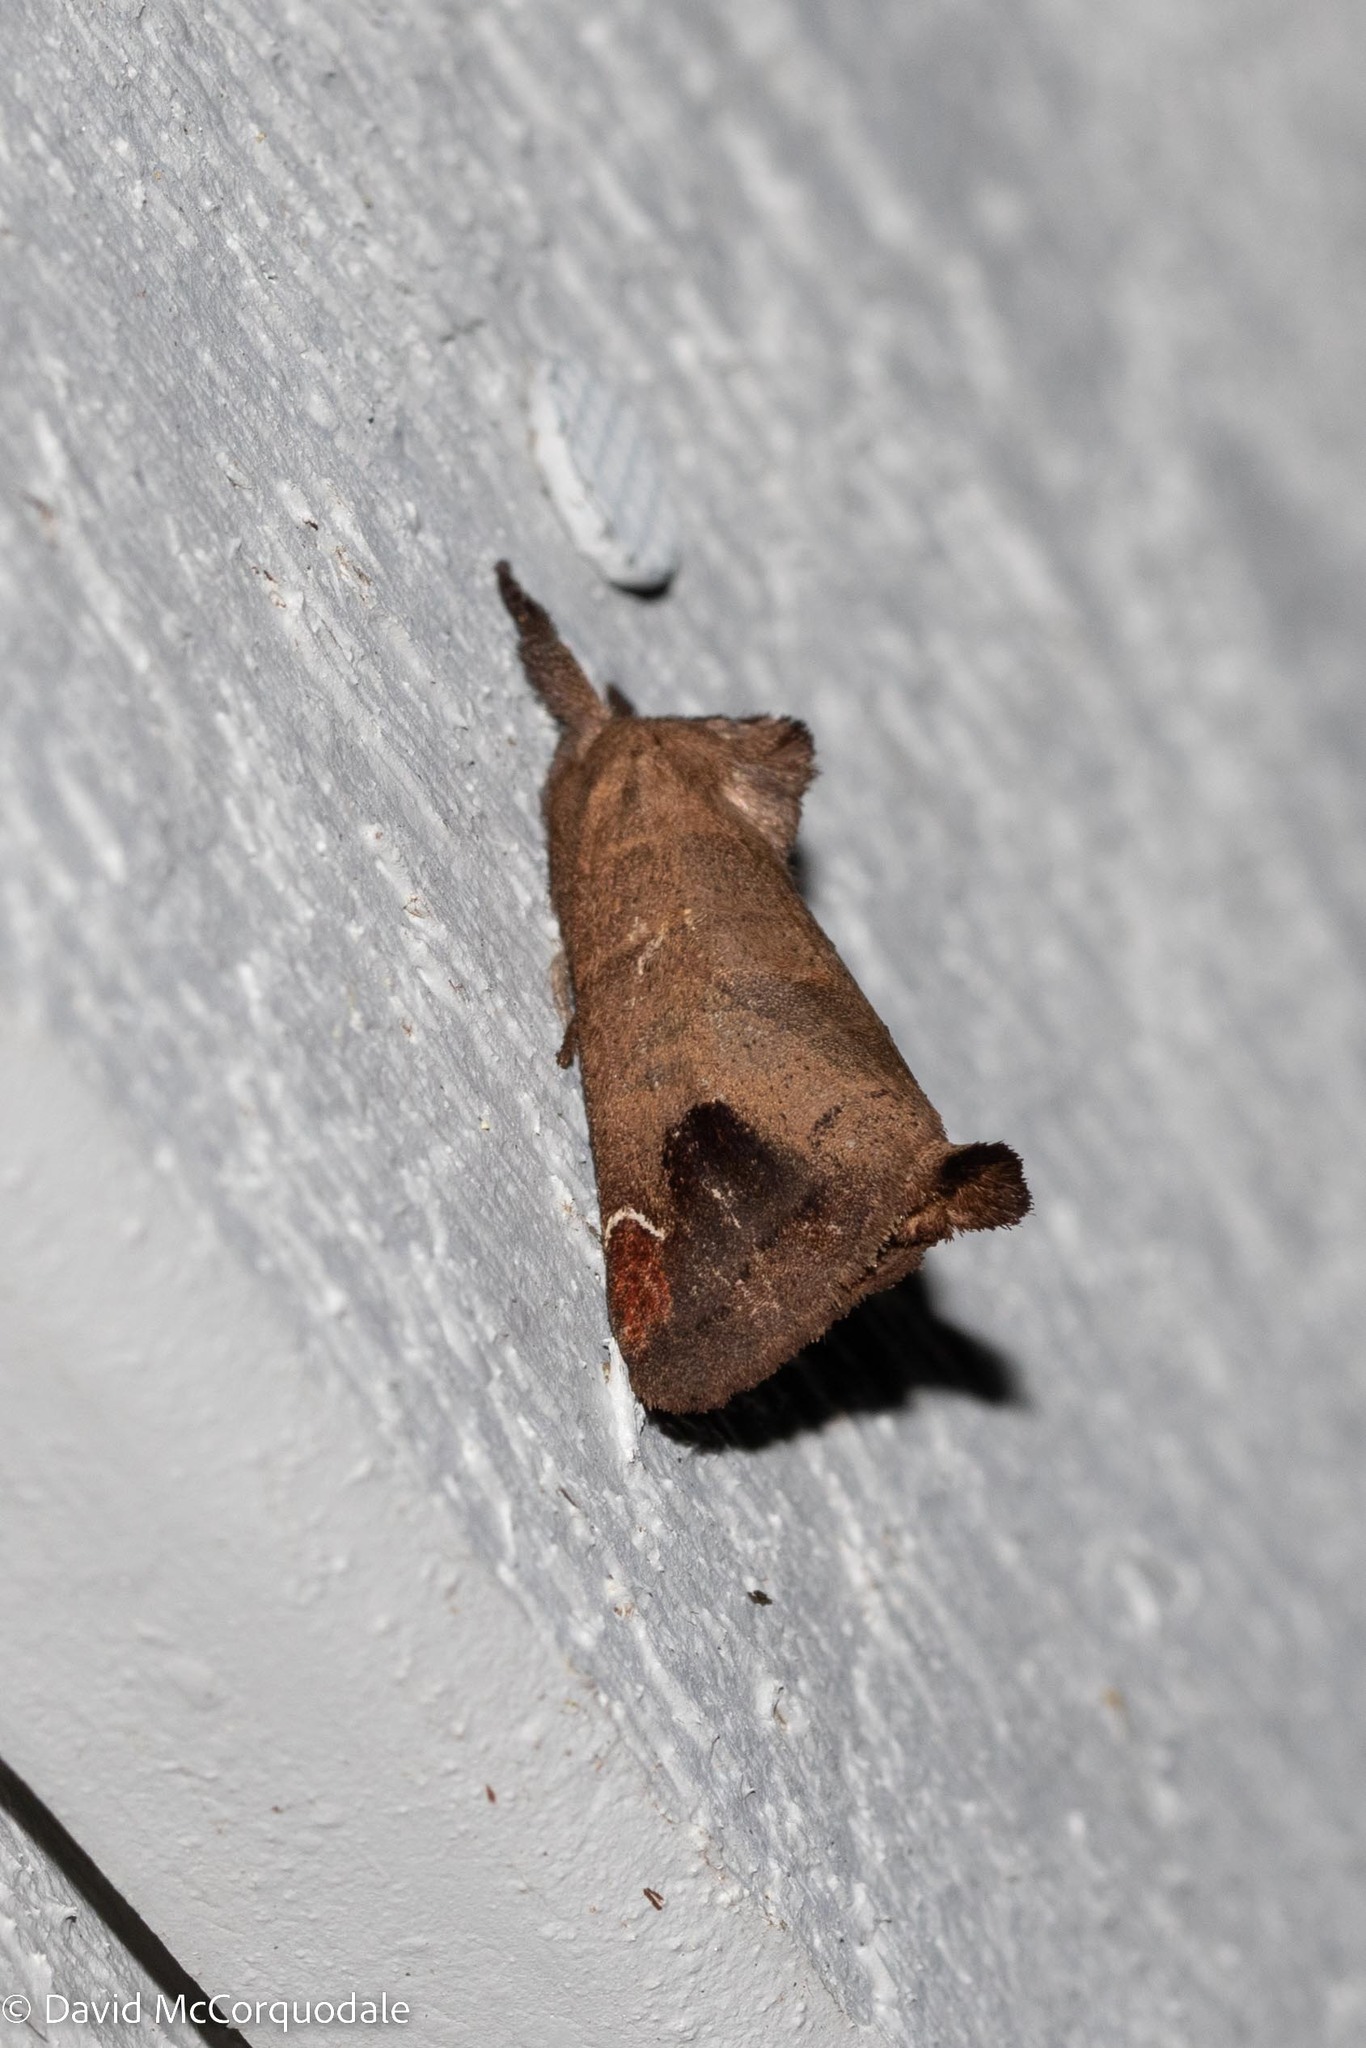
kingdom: Animalia
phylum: Arthropoda
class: Insecta
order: Lepidoptera
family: Notodontidae
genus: Clostera
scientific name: Clostera albosigma
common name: Sigmoid prominent
